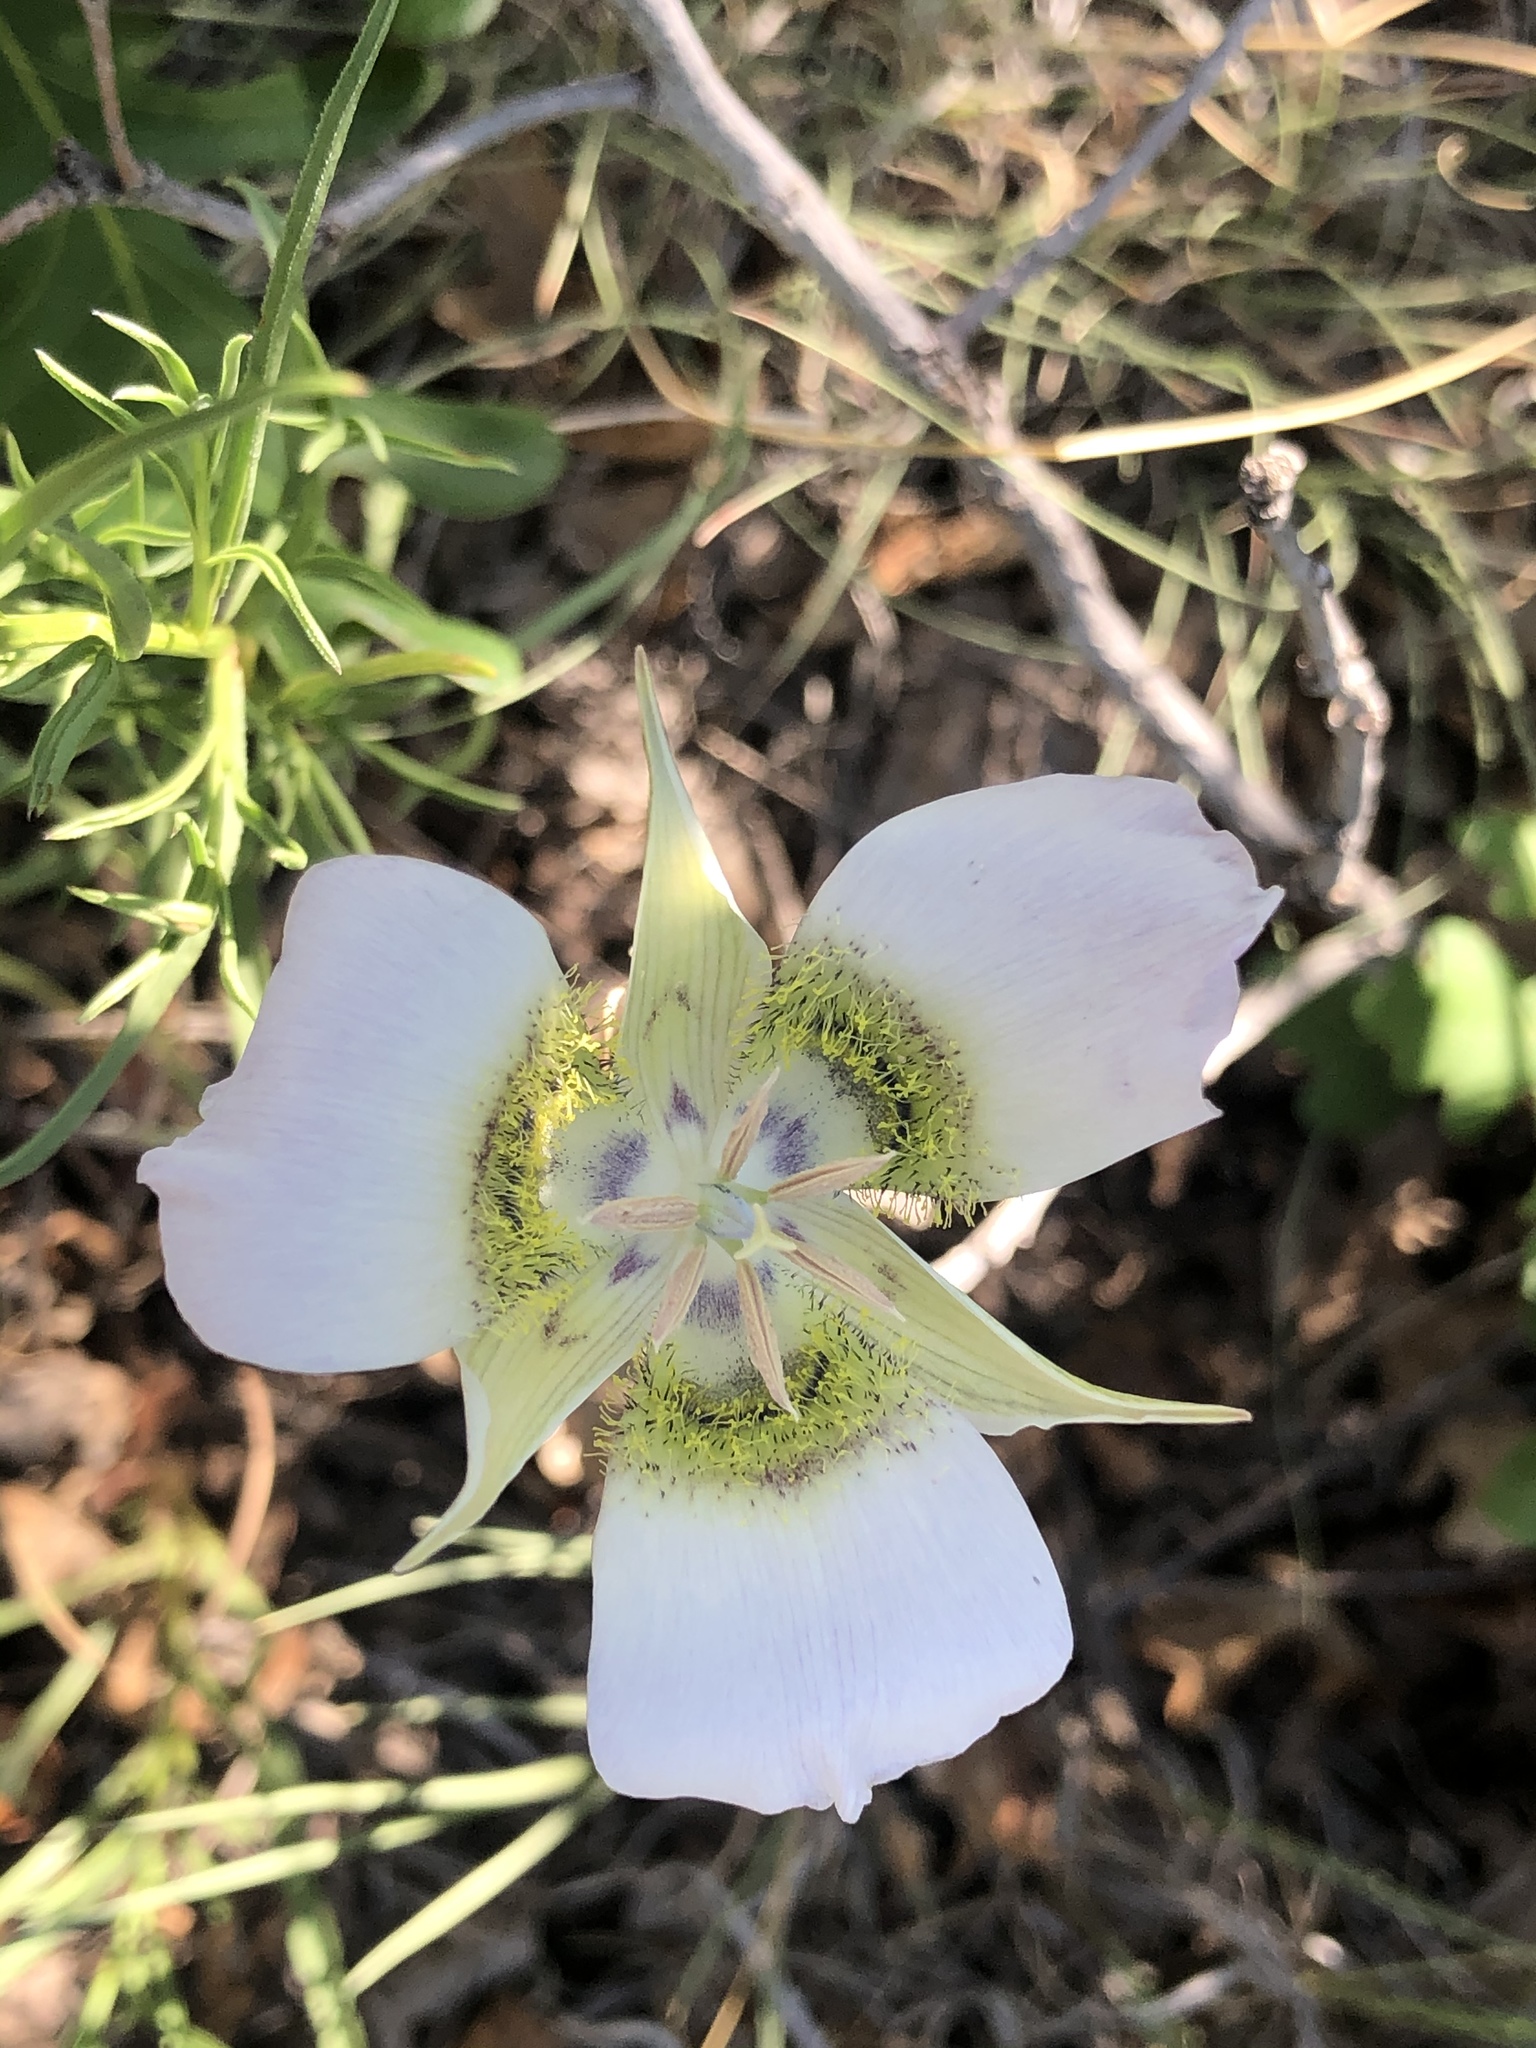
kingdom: Plantae
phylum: Tracheophyta
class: Liliopsida
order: Liliales
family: Liliaceae
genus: Calochortus
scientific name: Calochortus gunnisonii
